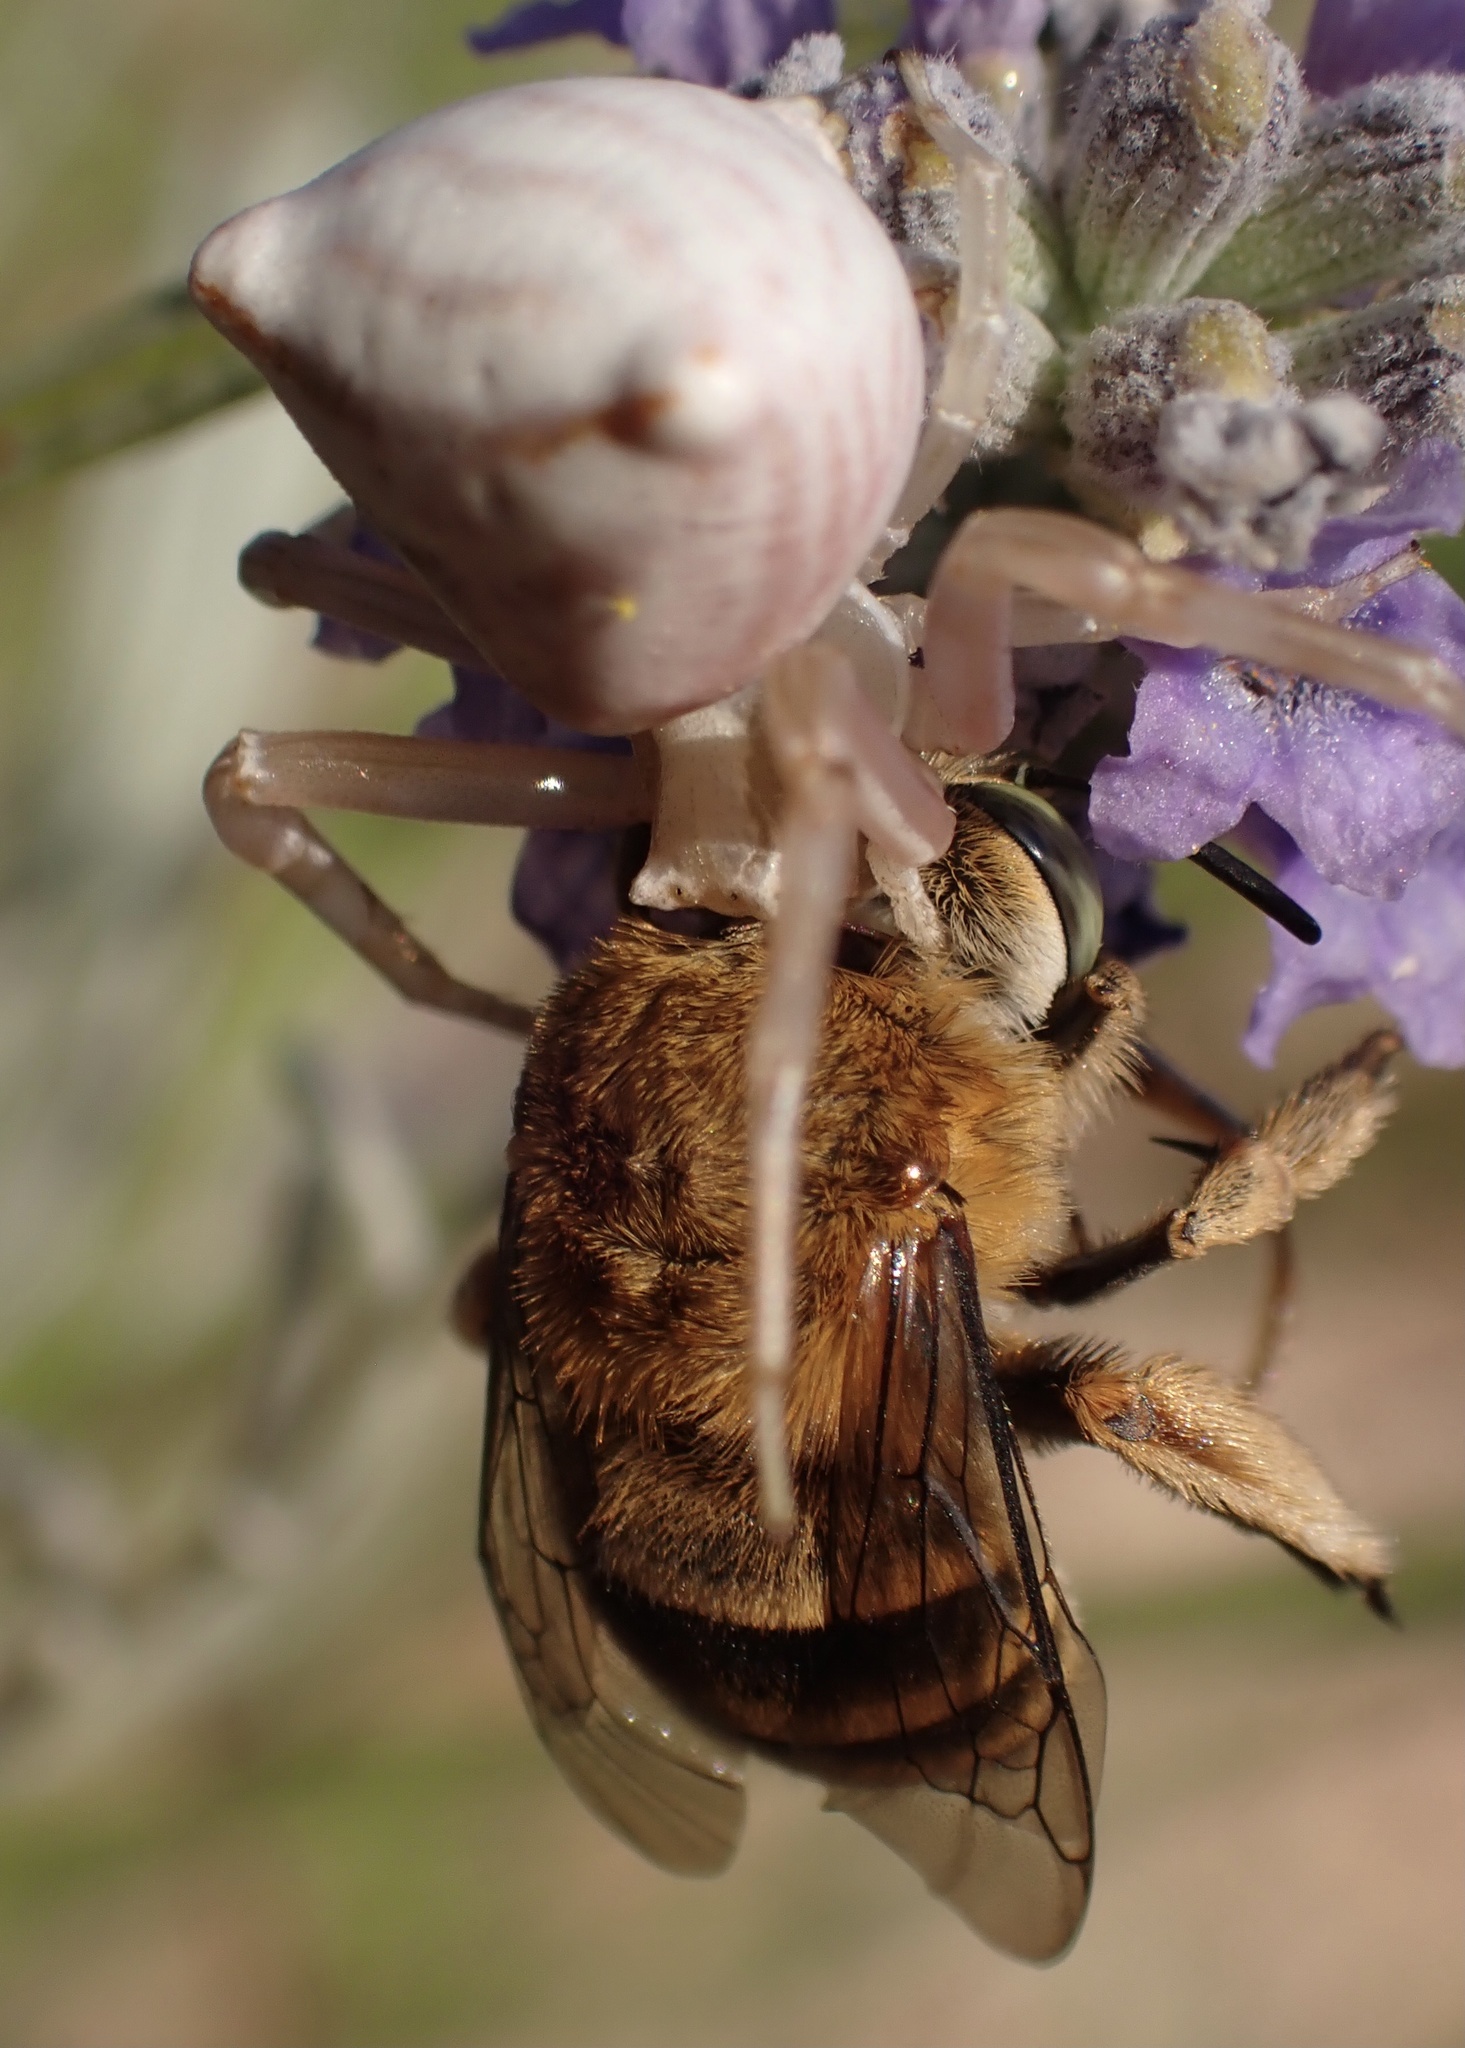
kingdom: Animalia
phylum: Arthropoda
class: Arachnida
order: Araneae
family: Thomisidae
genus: Thomisus
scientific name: Thomisus onustus
